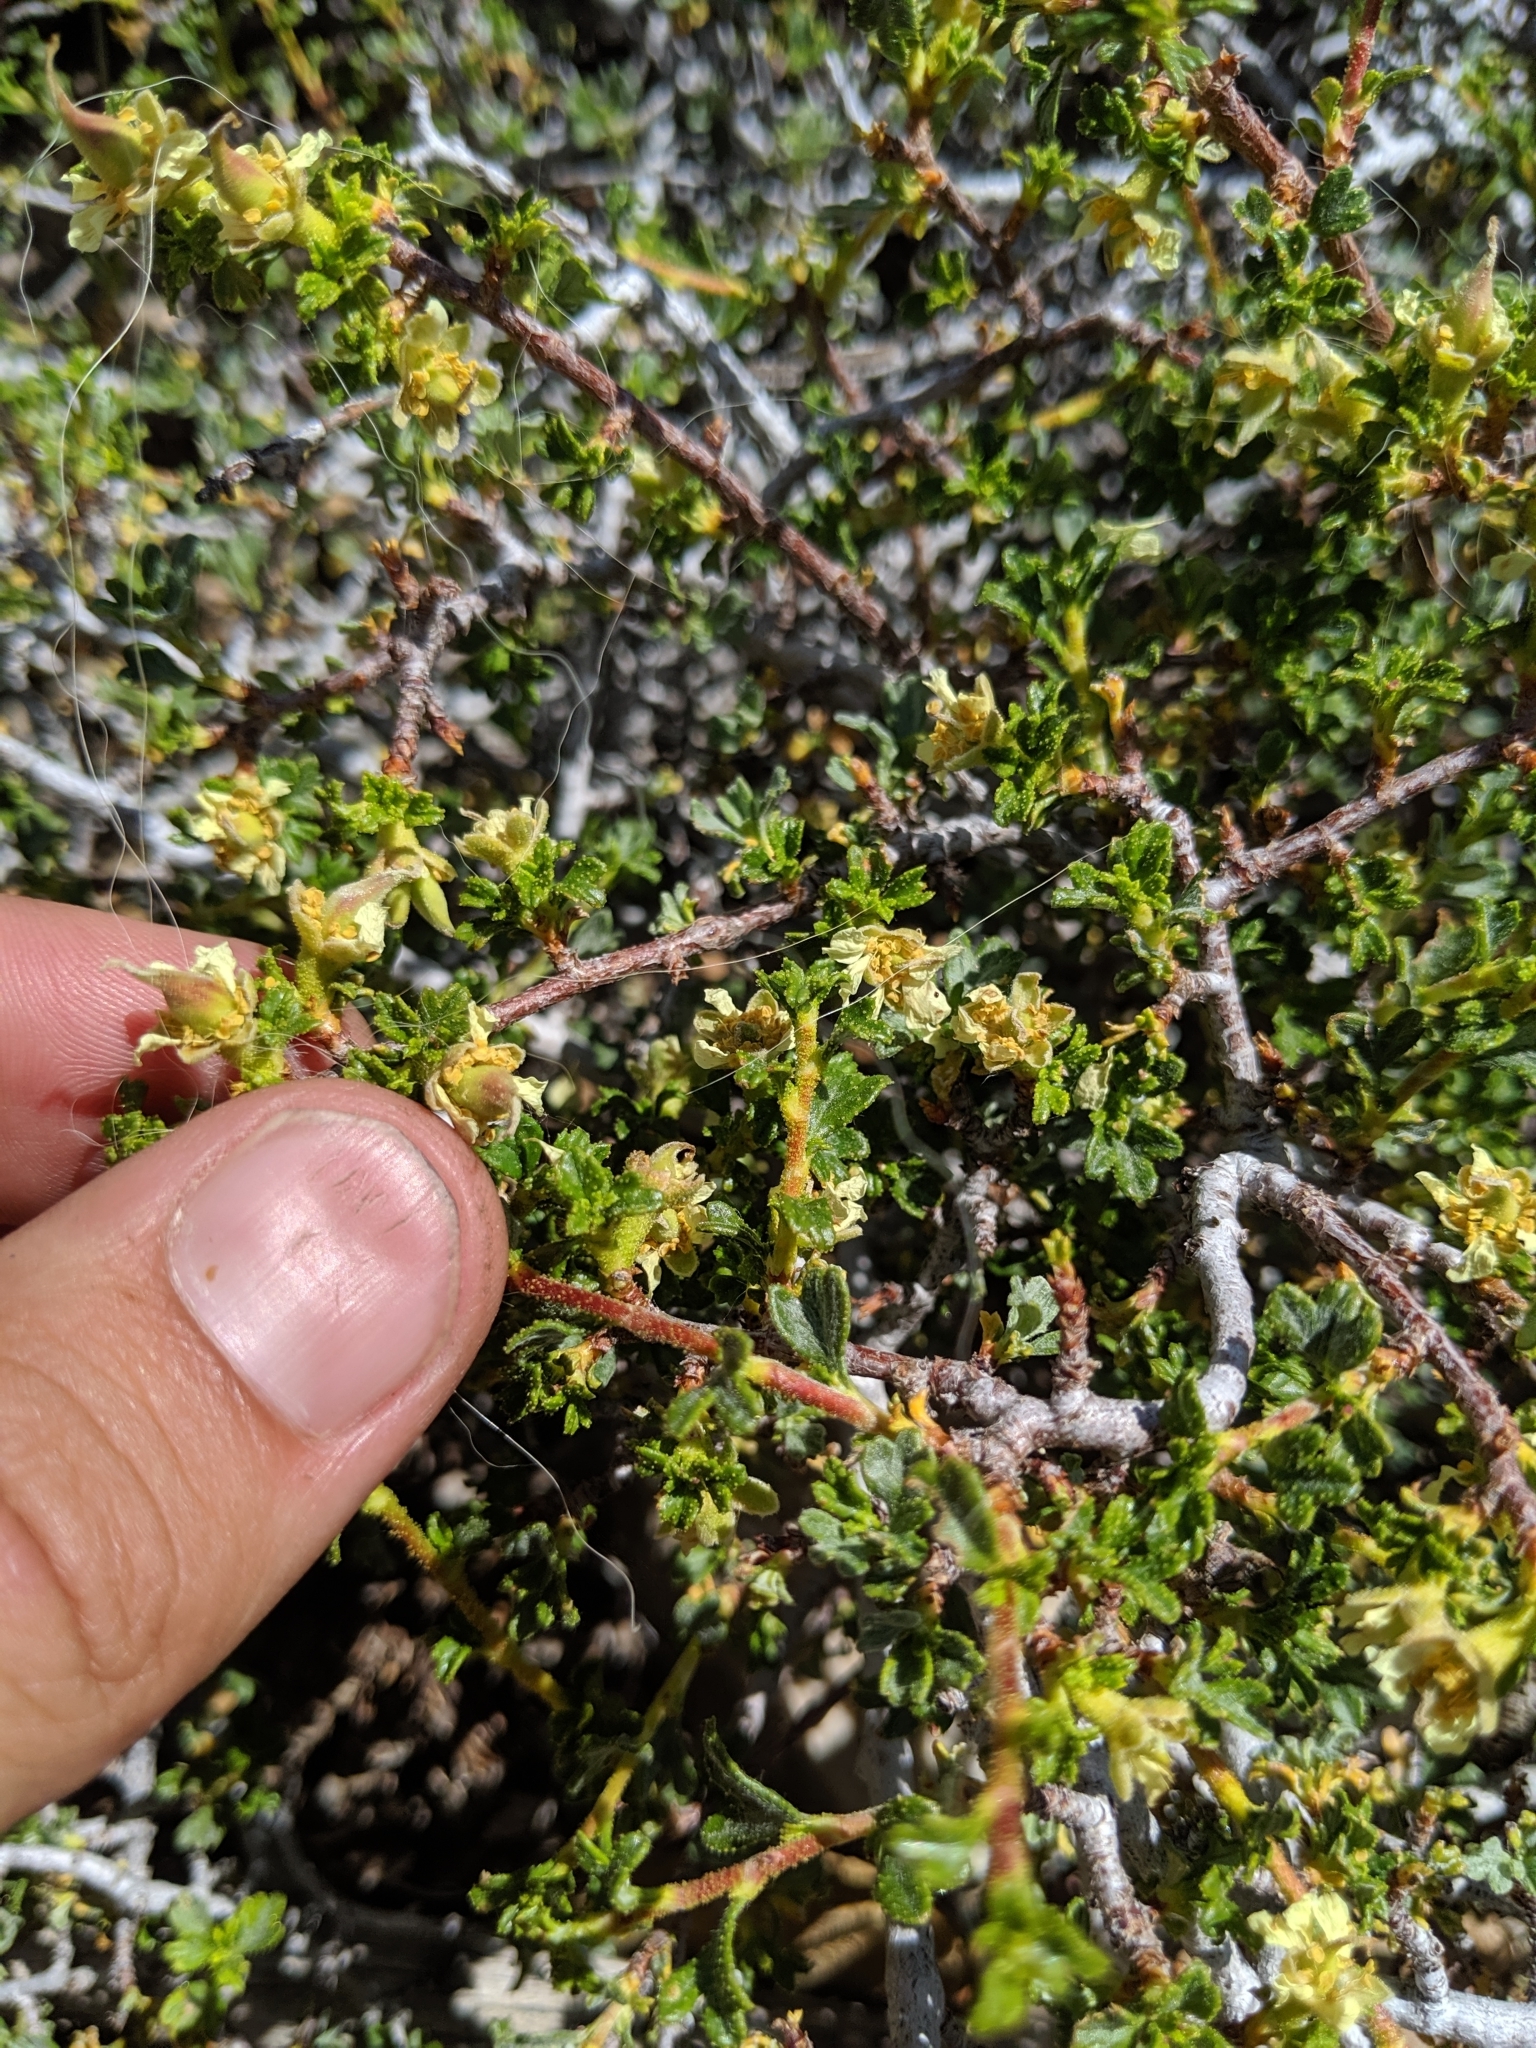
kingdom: Plantae
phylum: Tracheophyta
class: Magnoliopsida
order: Rosales
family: Rosaceae
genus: Purshia
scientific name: Purshia tridentata
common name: Antelope bitterbrush
